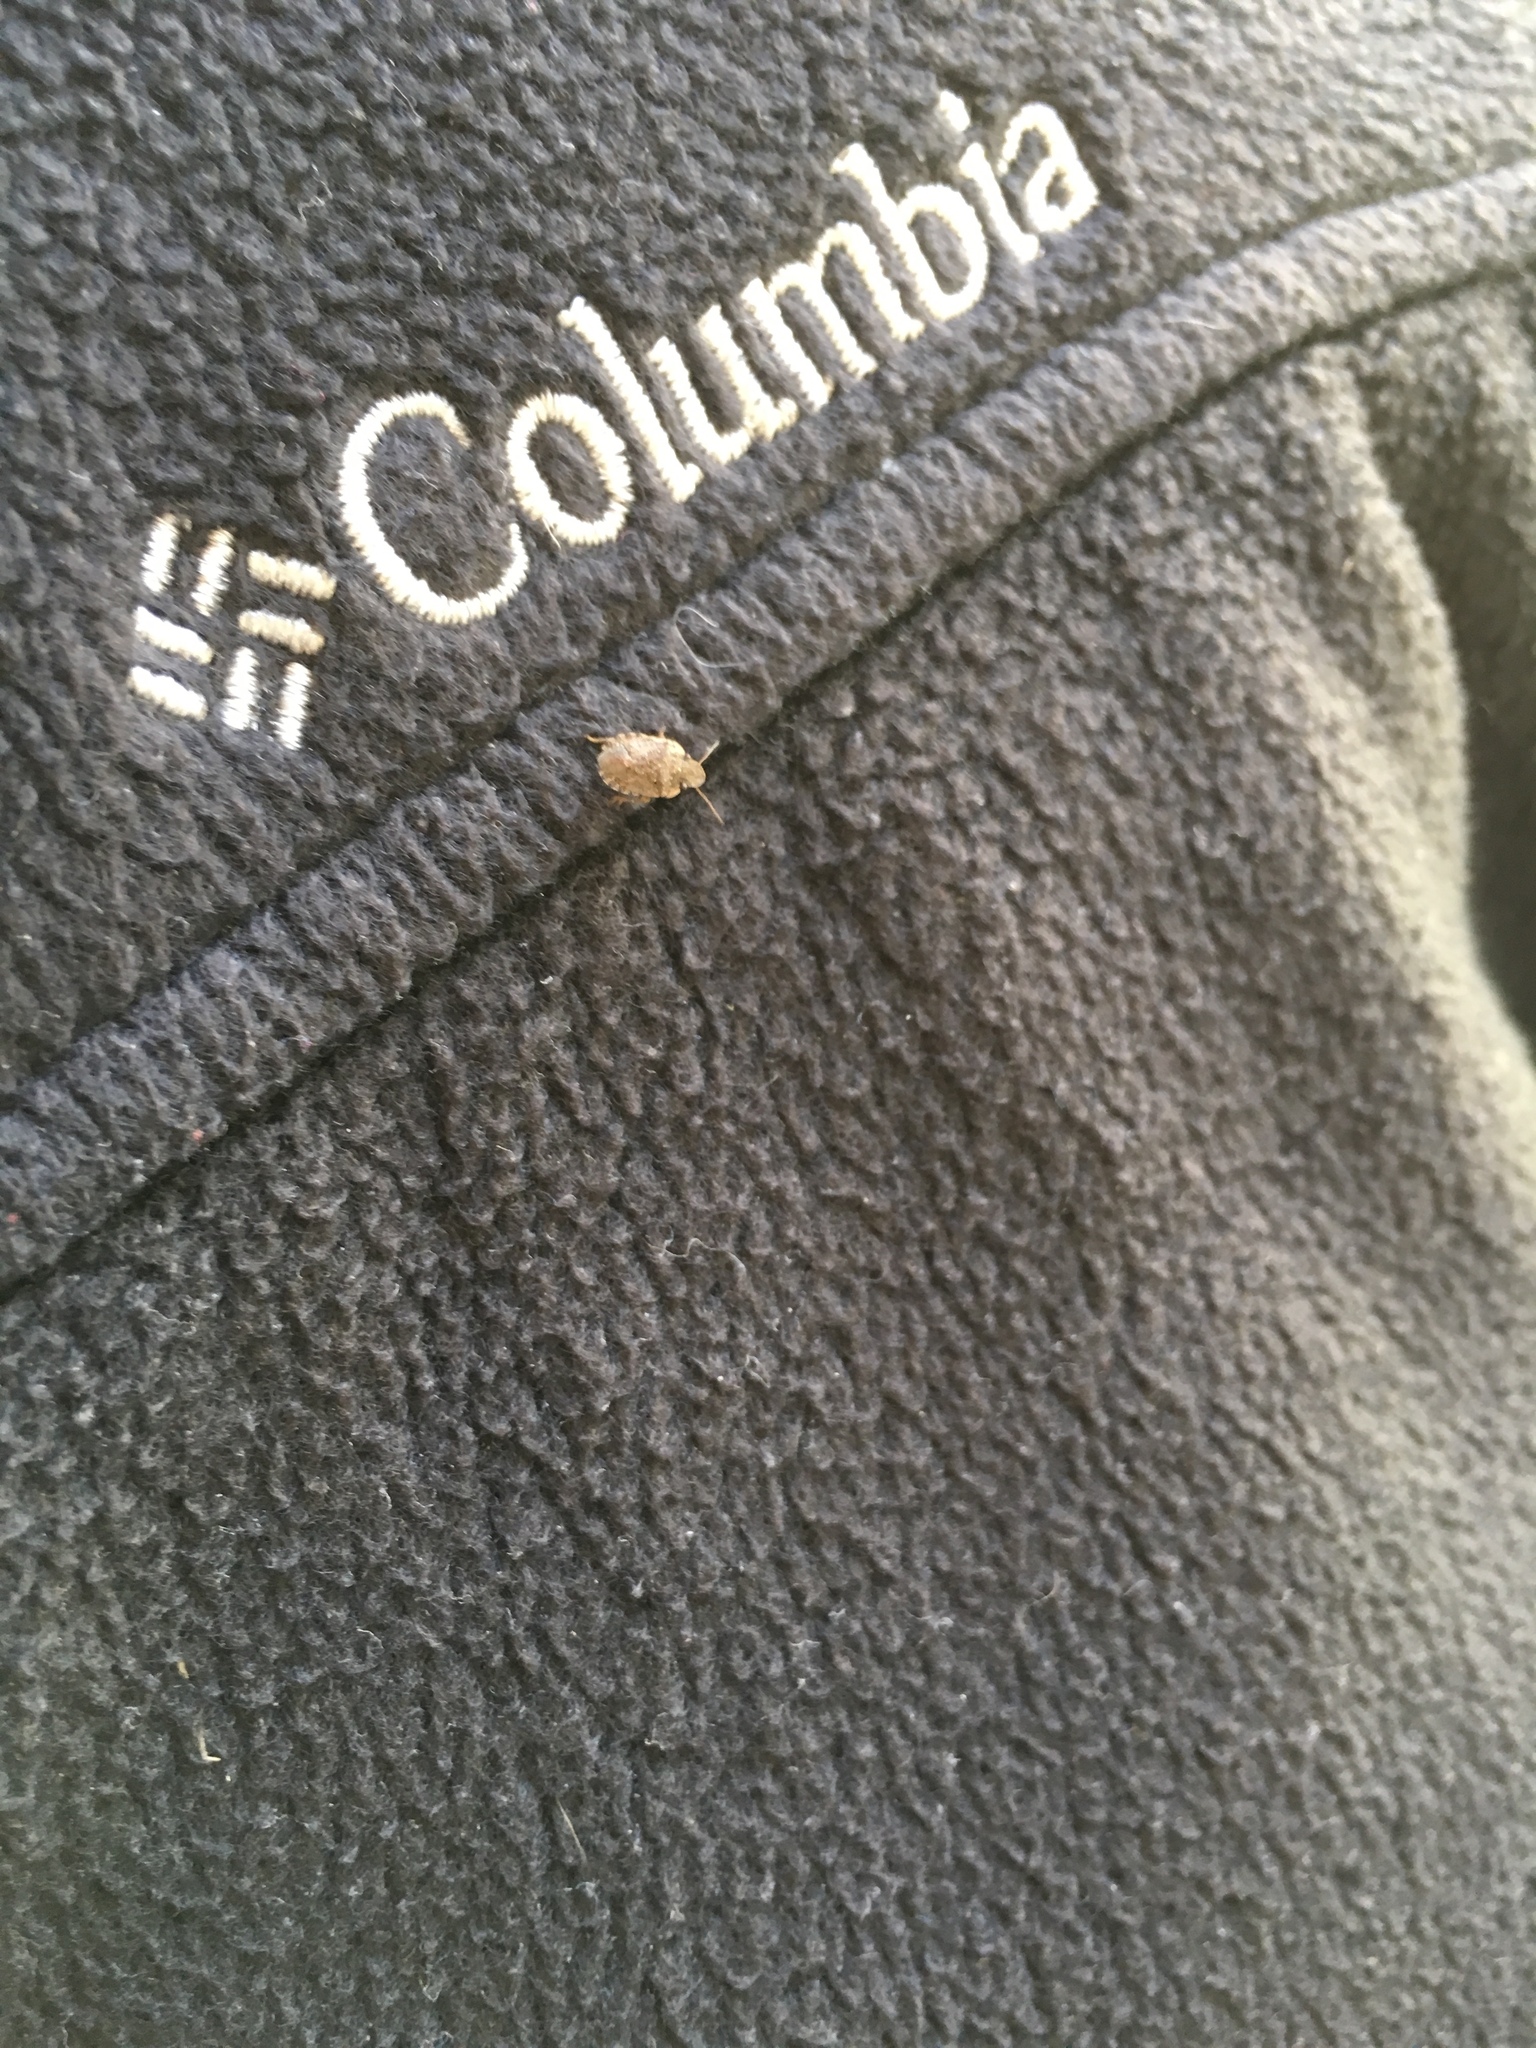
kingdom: Animalia
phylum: Arthropoda
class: Insecta
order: Hemiptera
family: Pentatomidae
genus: Sciocoris
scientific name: Sciocoris sideritidis
